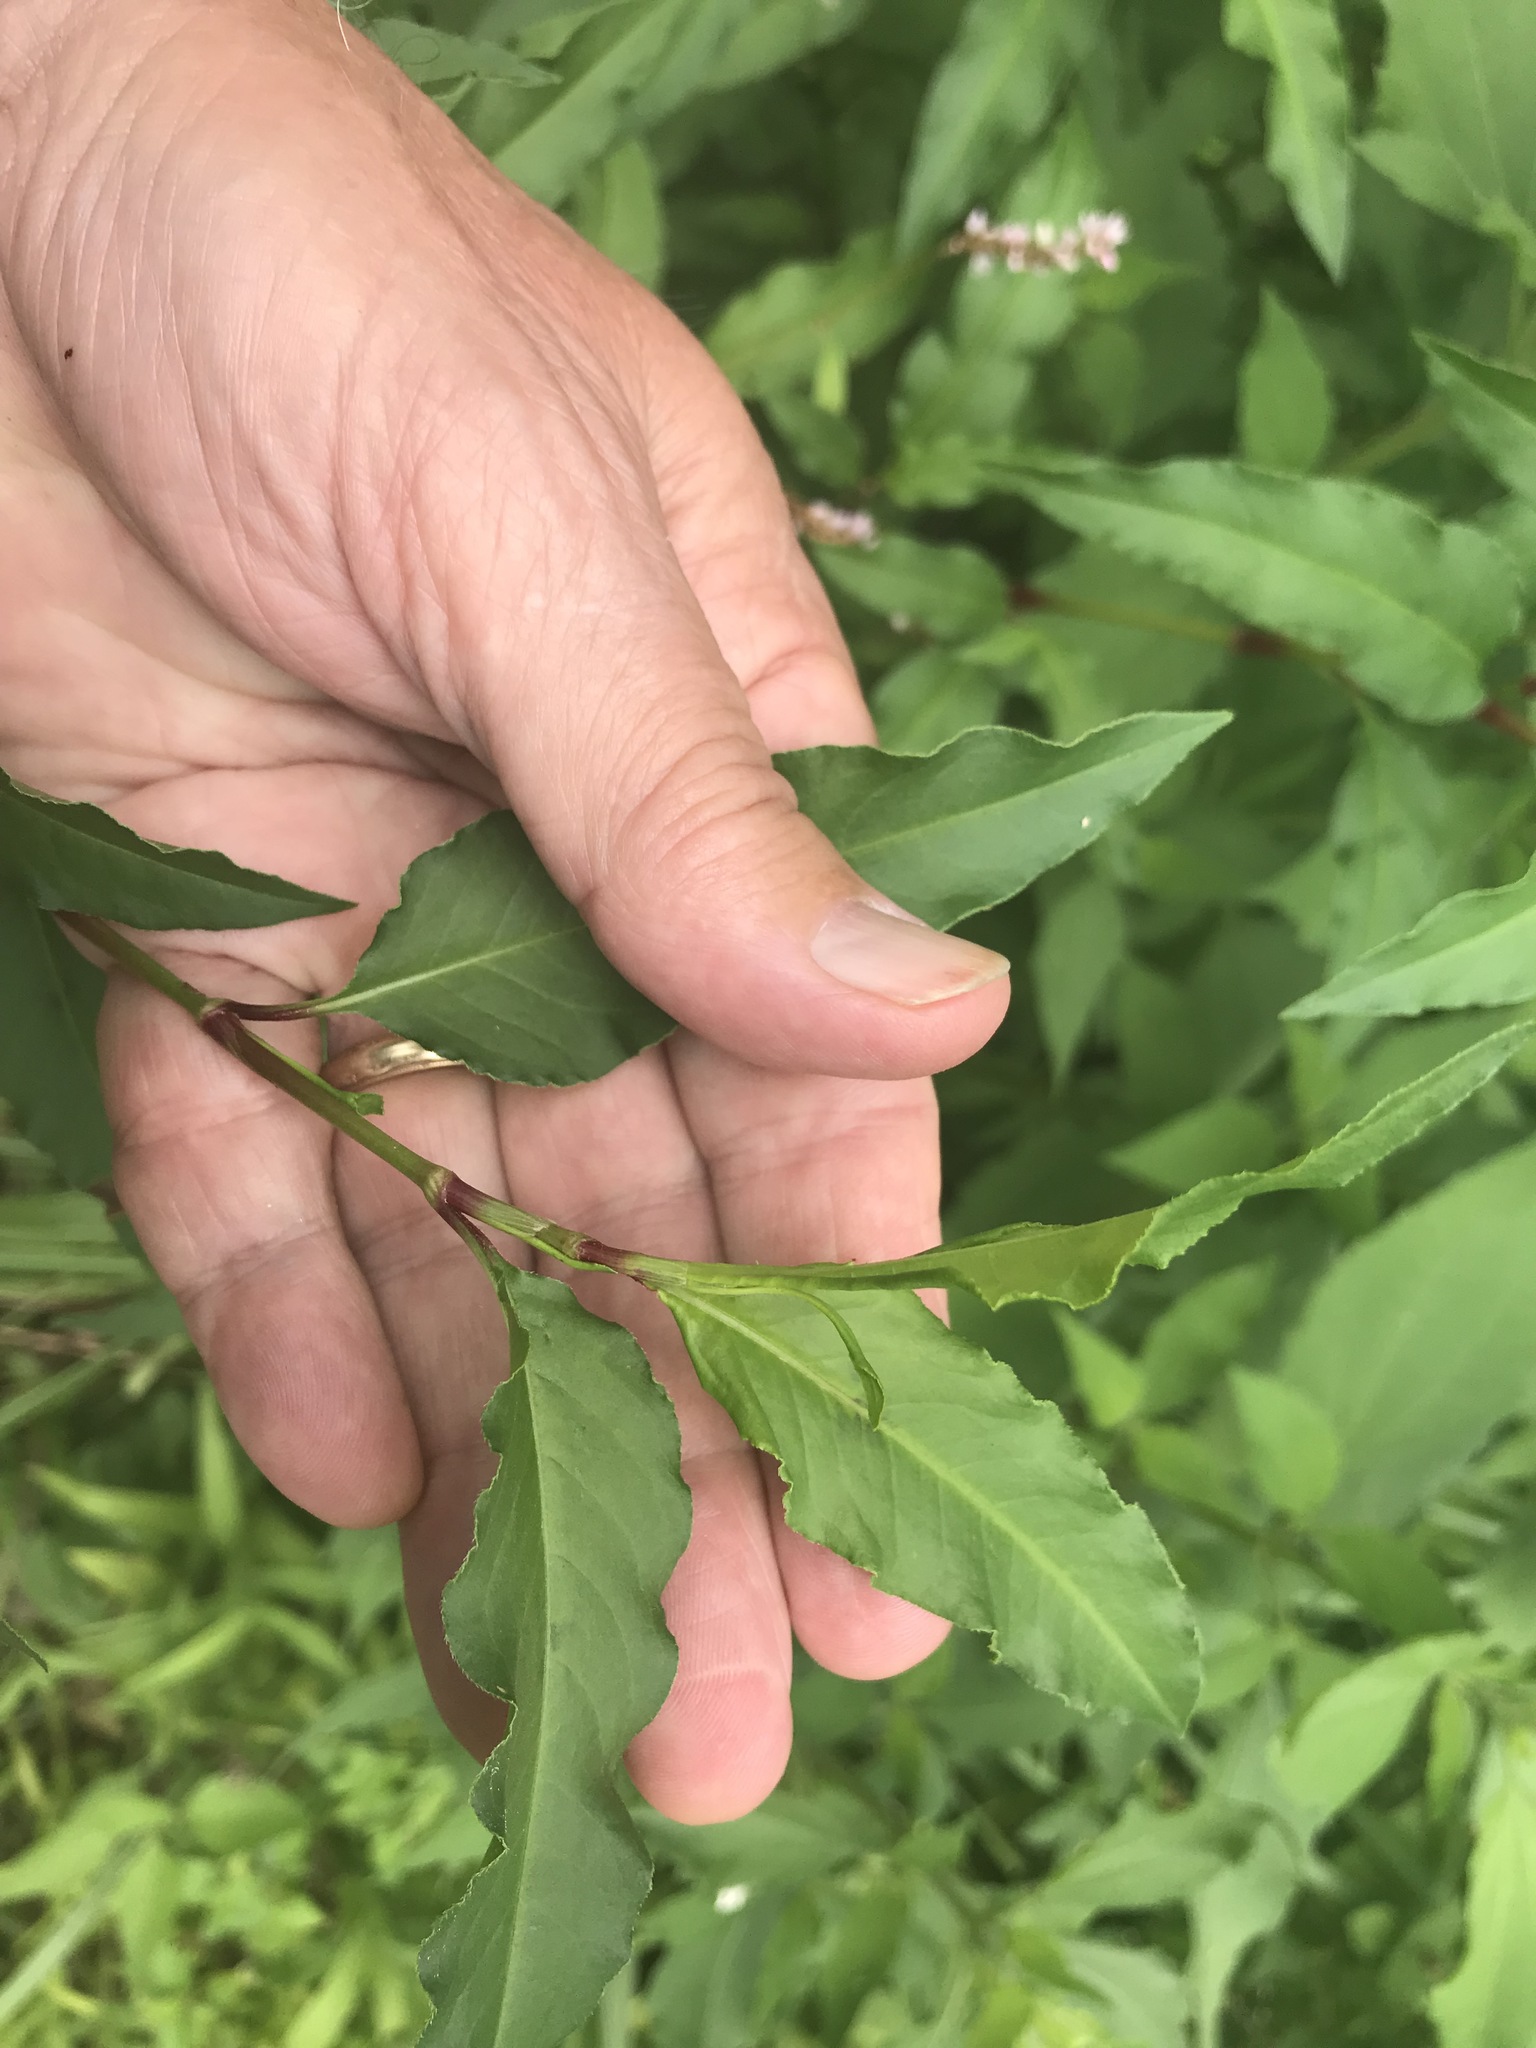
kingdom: Plantae
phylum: Tracheophyta
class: Magnoliopsida
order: Caryophyllales
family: Polygonaceae
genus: Persicaria
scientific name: Persicaria pensylvanica
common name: Pinkweed
